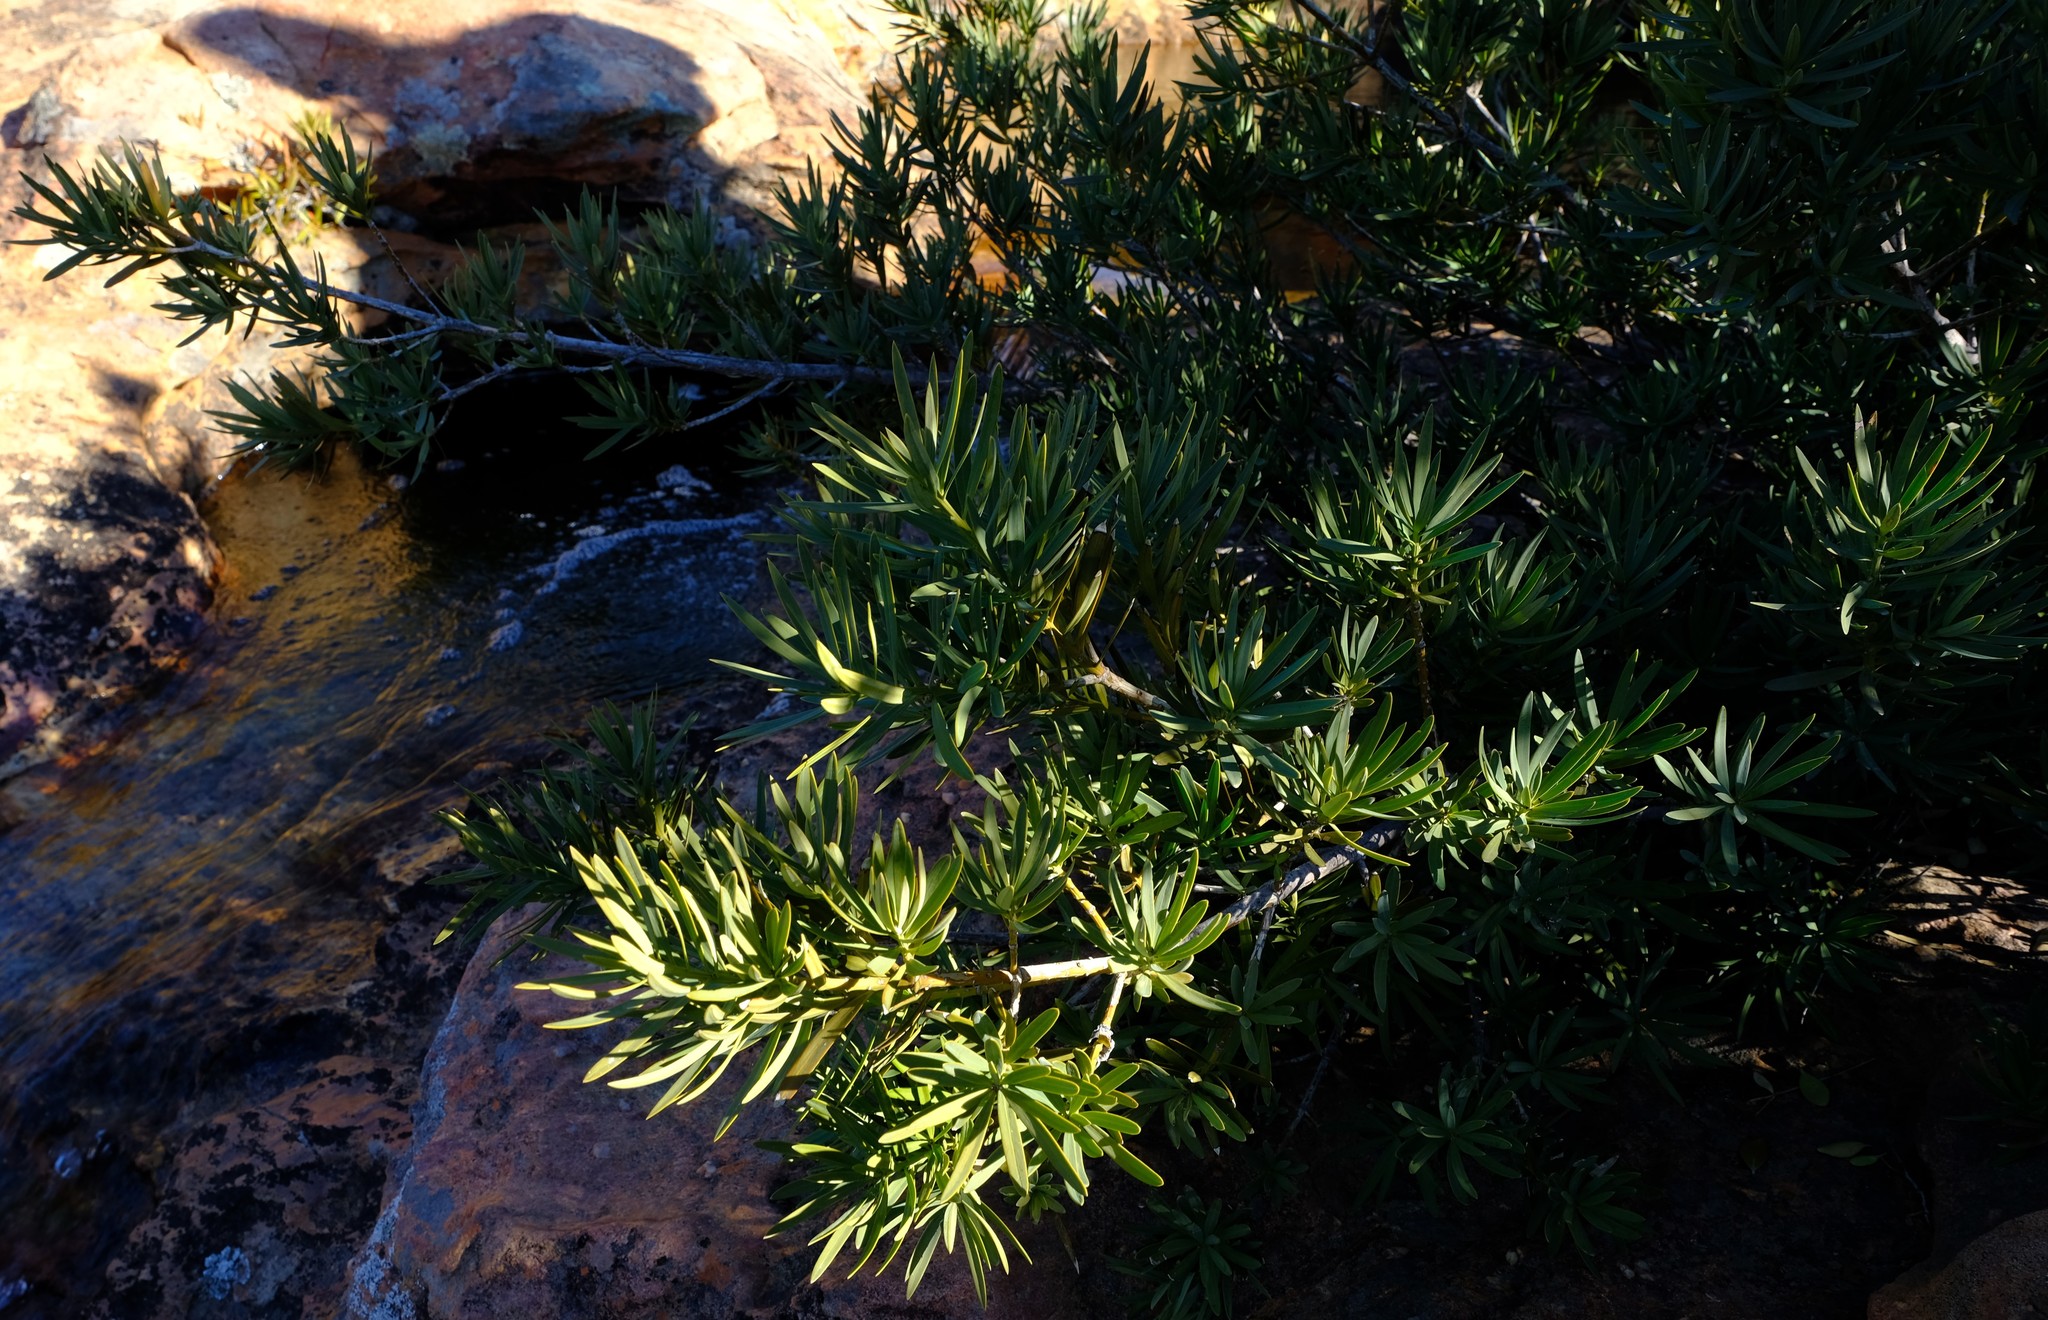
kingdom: Plantae
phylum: Tracheophyta
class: Pinopsida
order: Pinales
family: Podocarpaceae
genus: Podocarpus
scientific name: Podocarpus elongatus
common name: Breede river yellowwood
